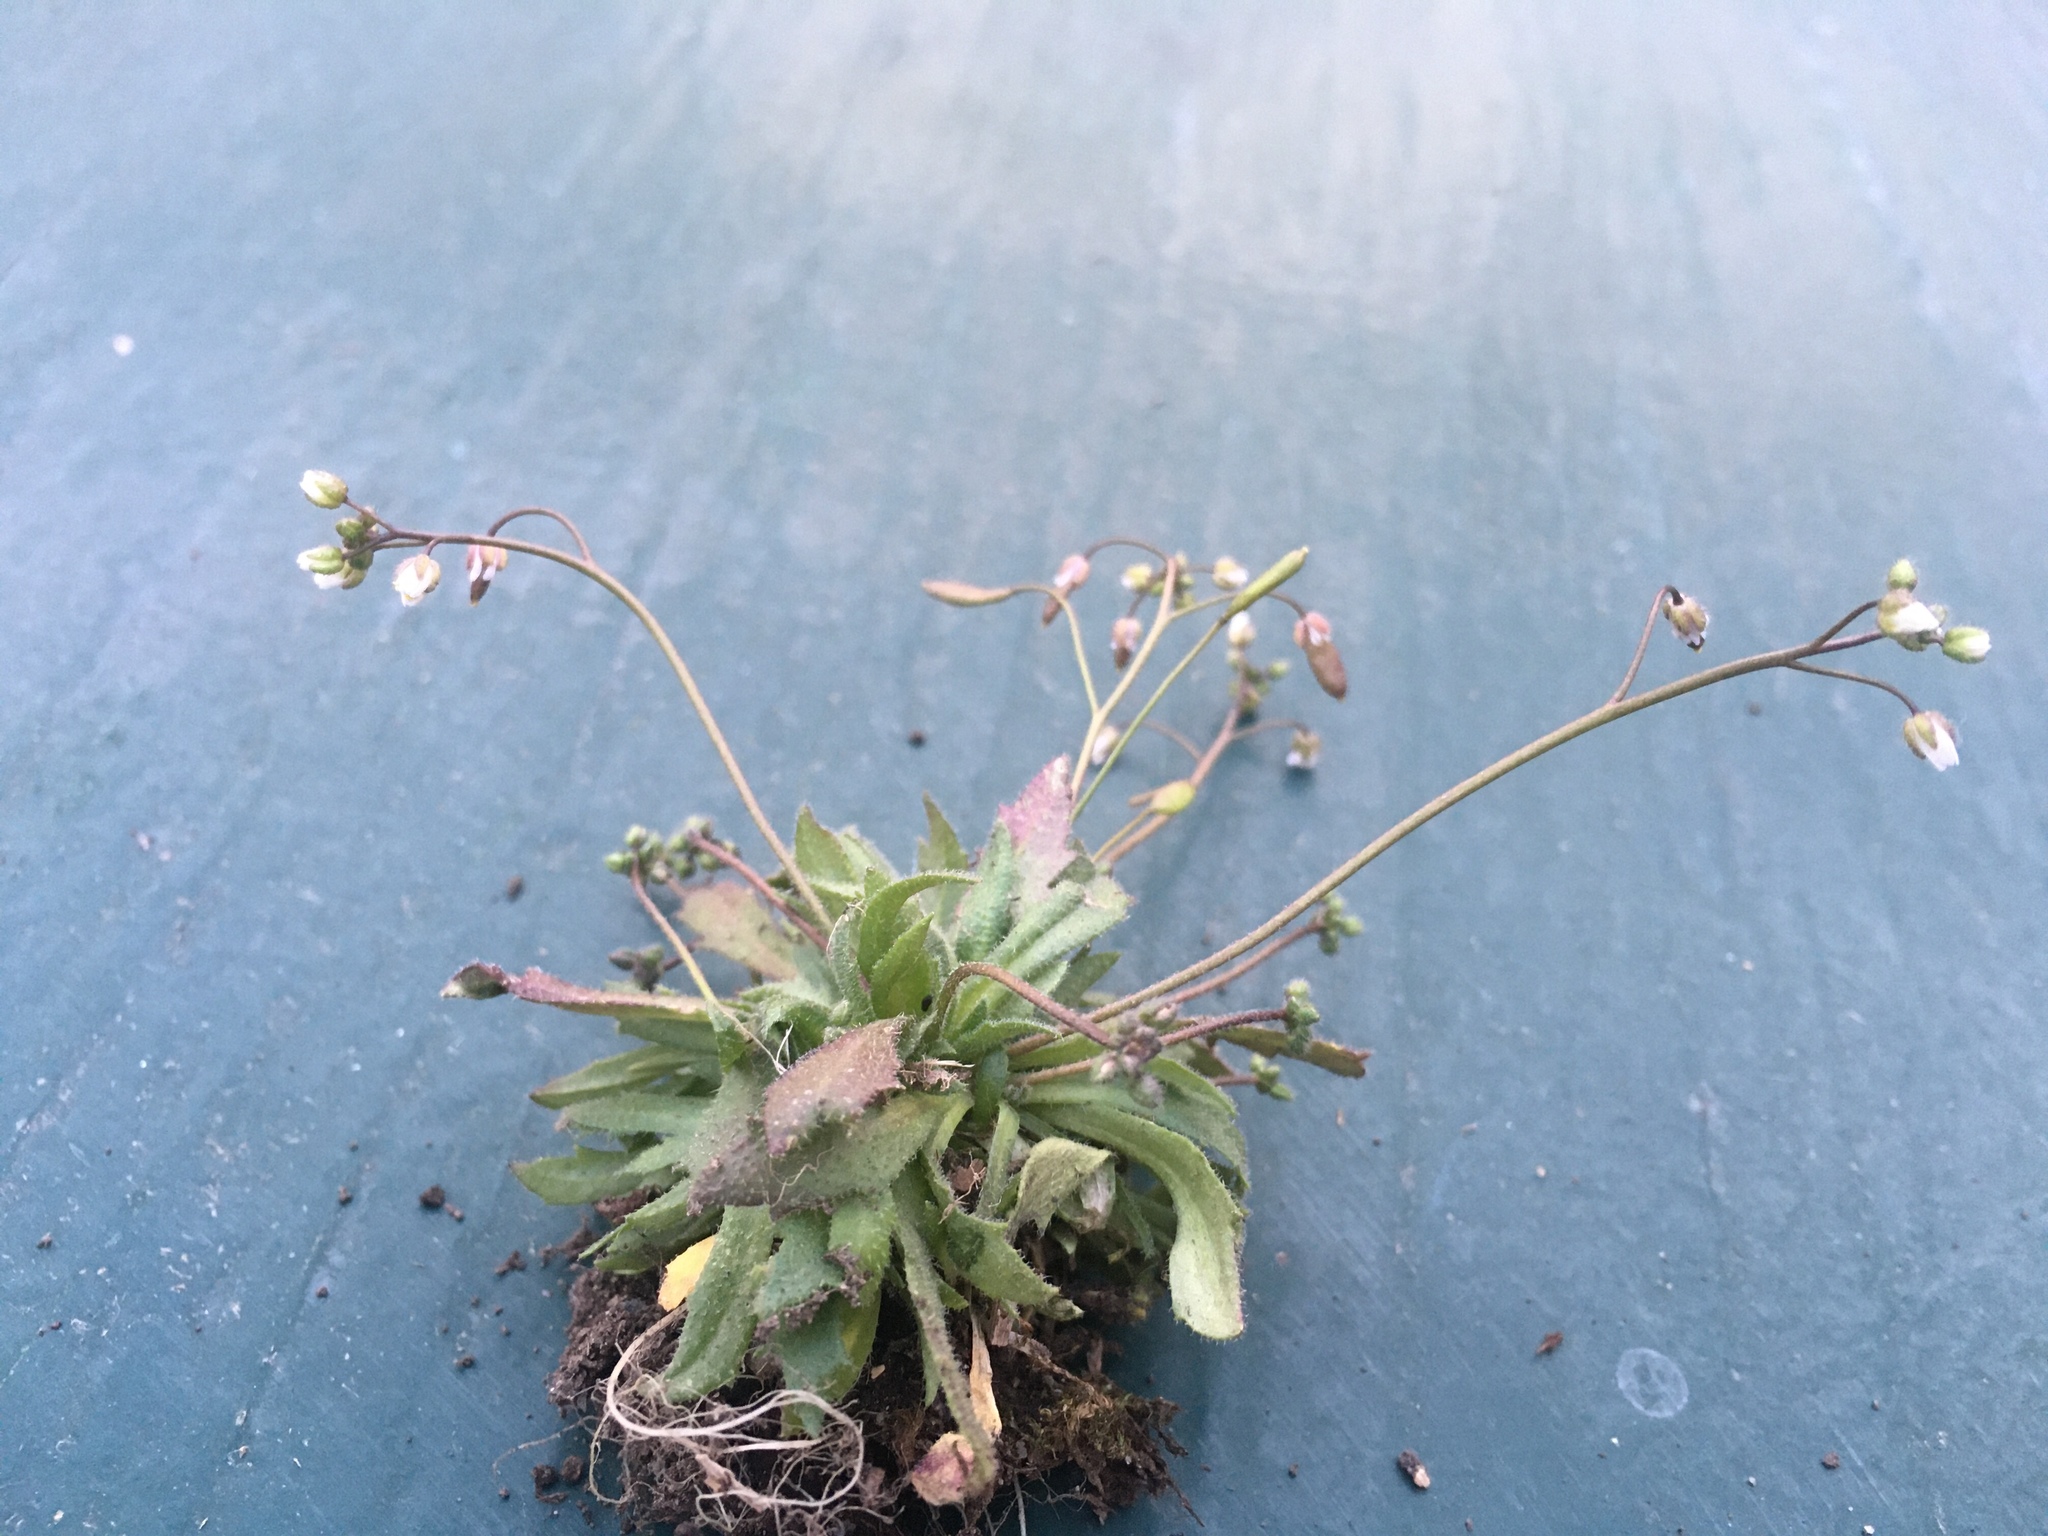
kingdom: Plantae
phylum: Tracheophyta
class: Magnoliopsida
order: Brassicales
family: Brassicaceae
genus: Draba
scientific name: Draba verna
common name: Spring draba
